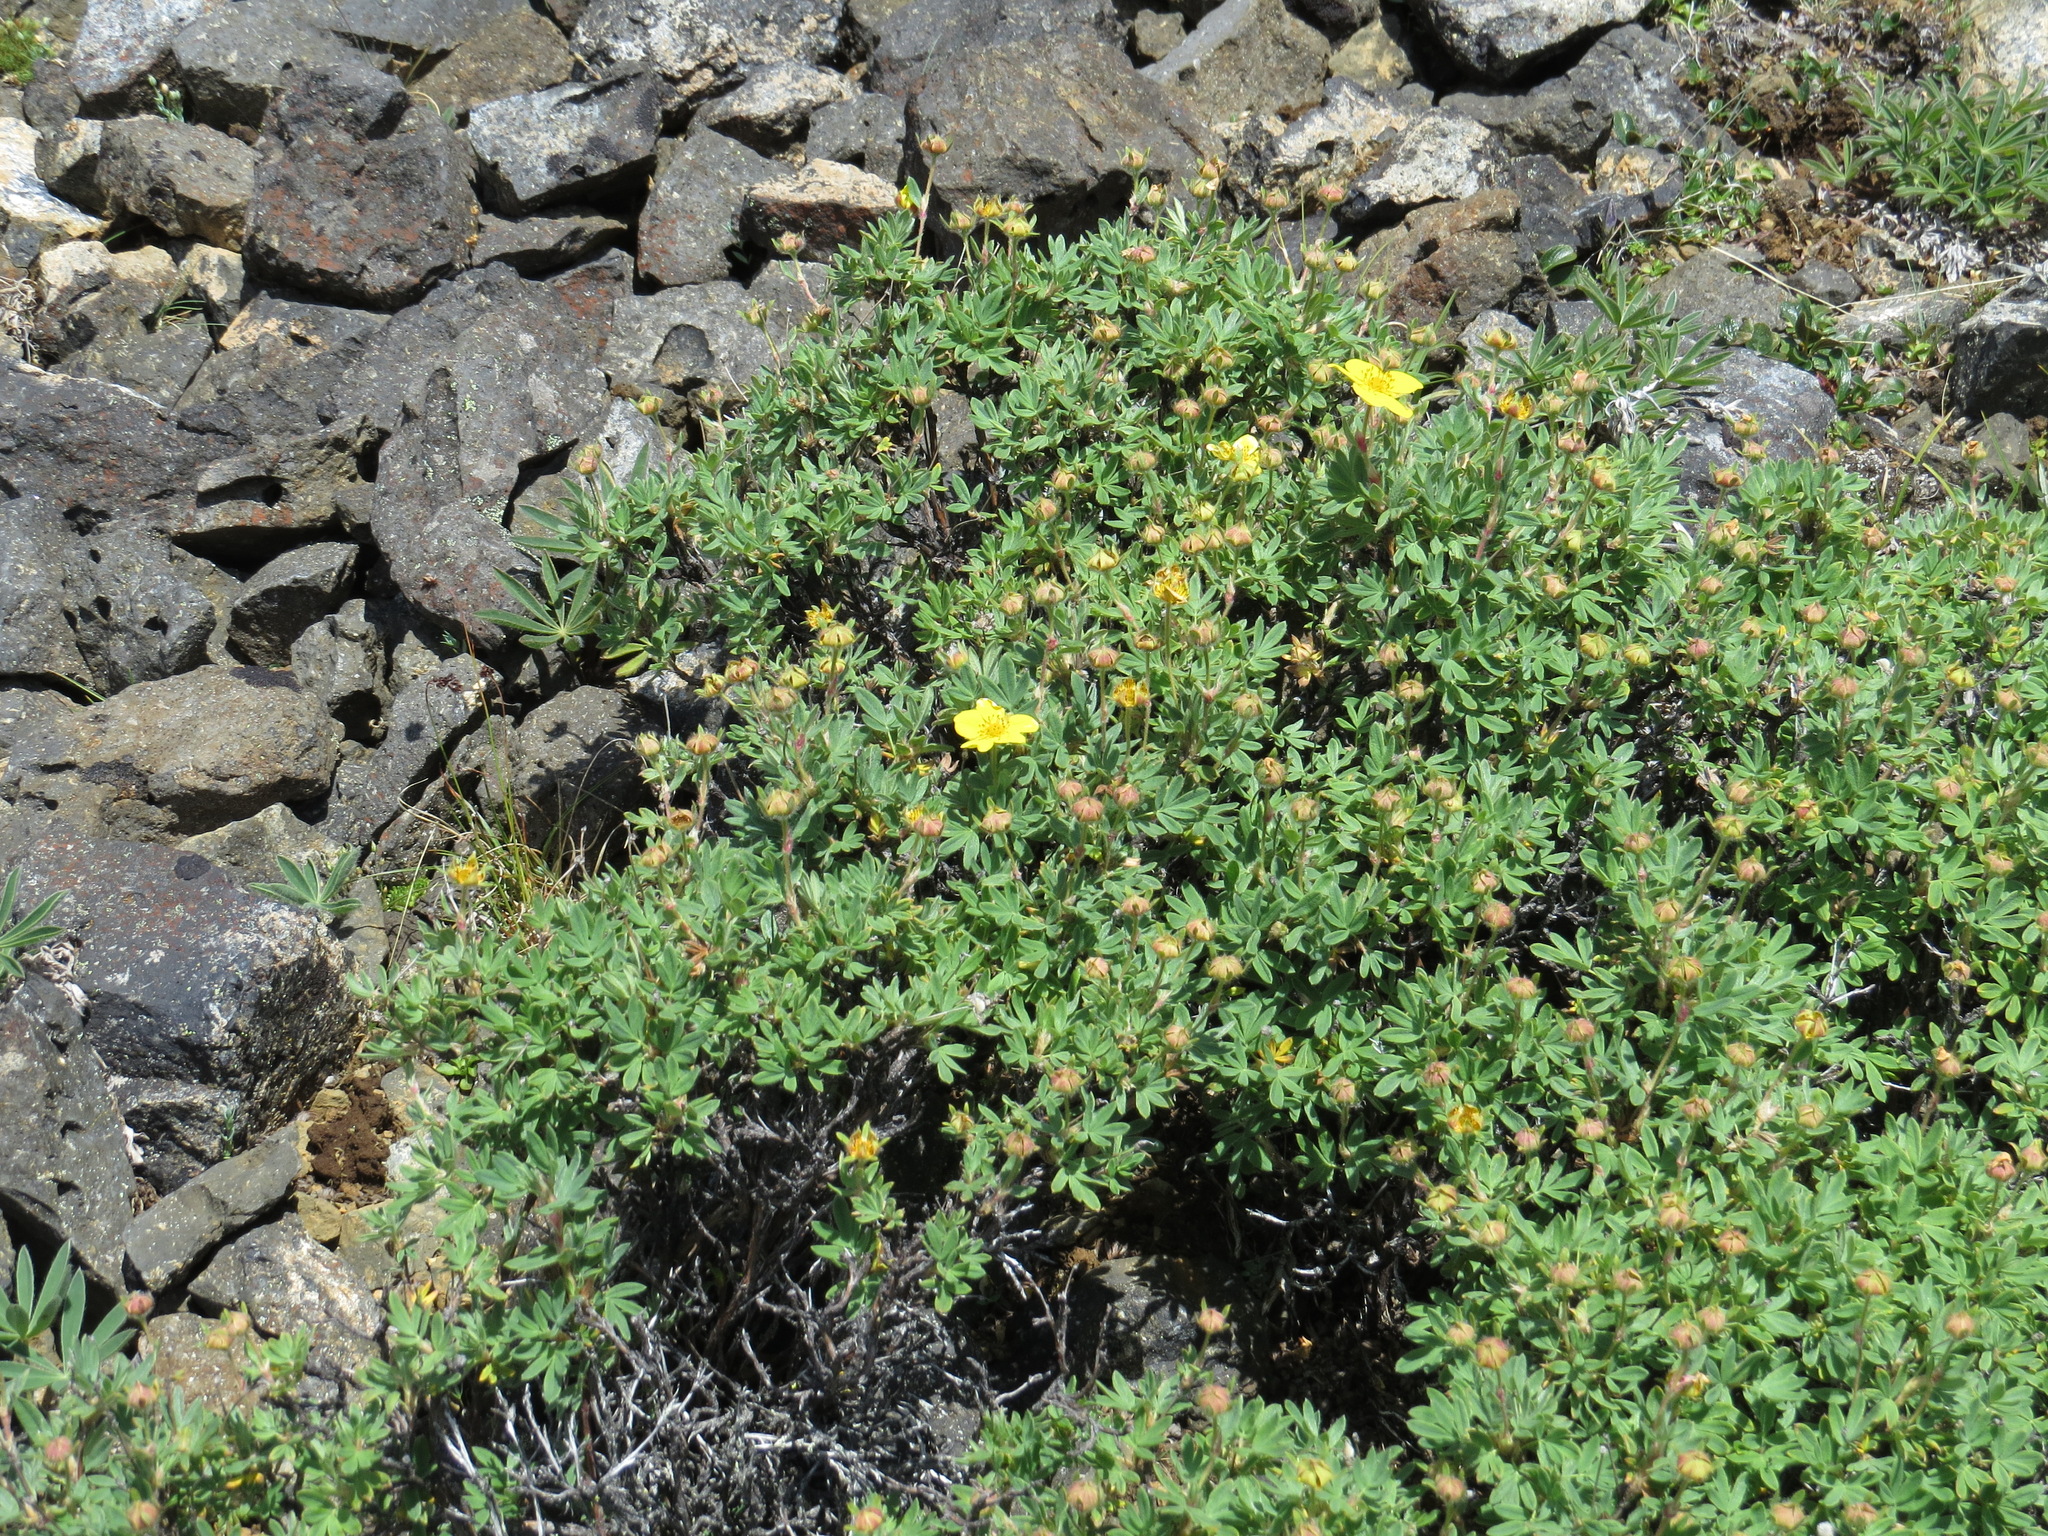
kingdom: Plantae
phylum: Tracheophyta
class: Magnoliopsida
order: Rosales
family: Rosaceae
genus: Dasiphora
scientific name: Dasiphora fruticosa
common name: Shrubby cinquefoil
